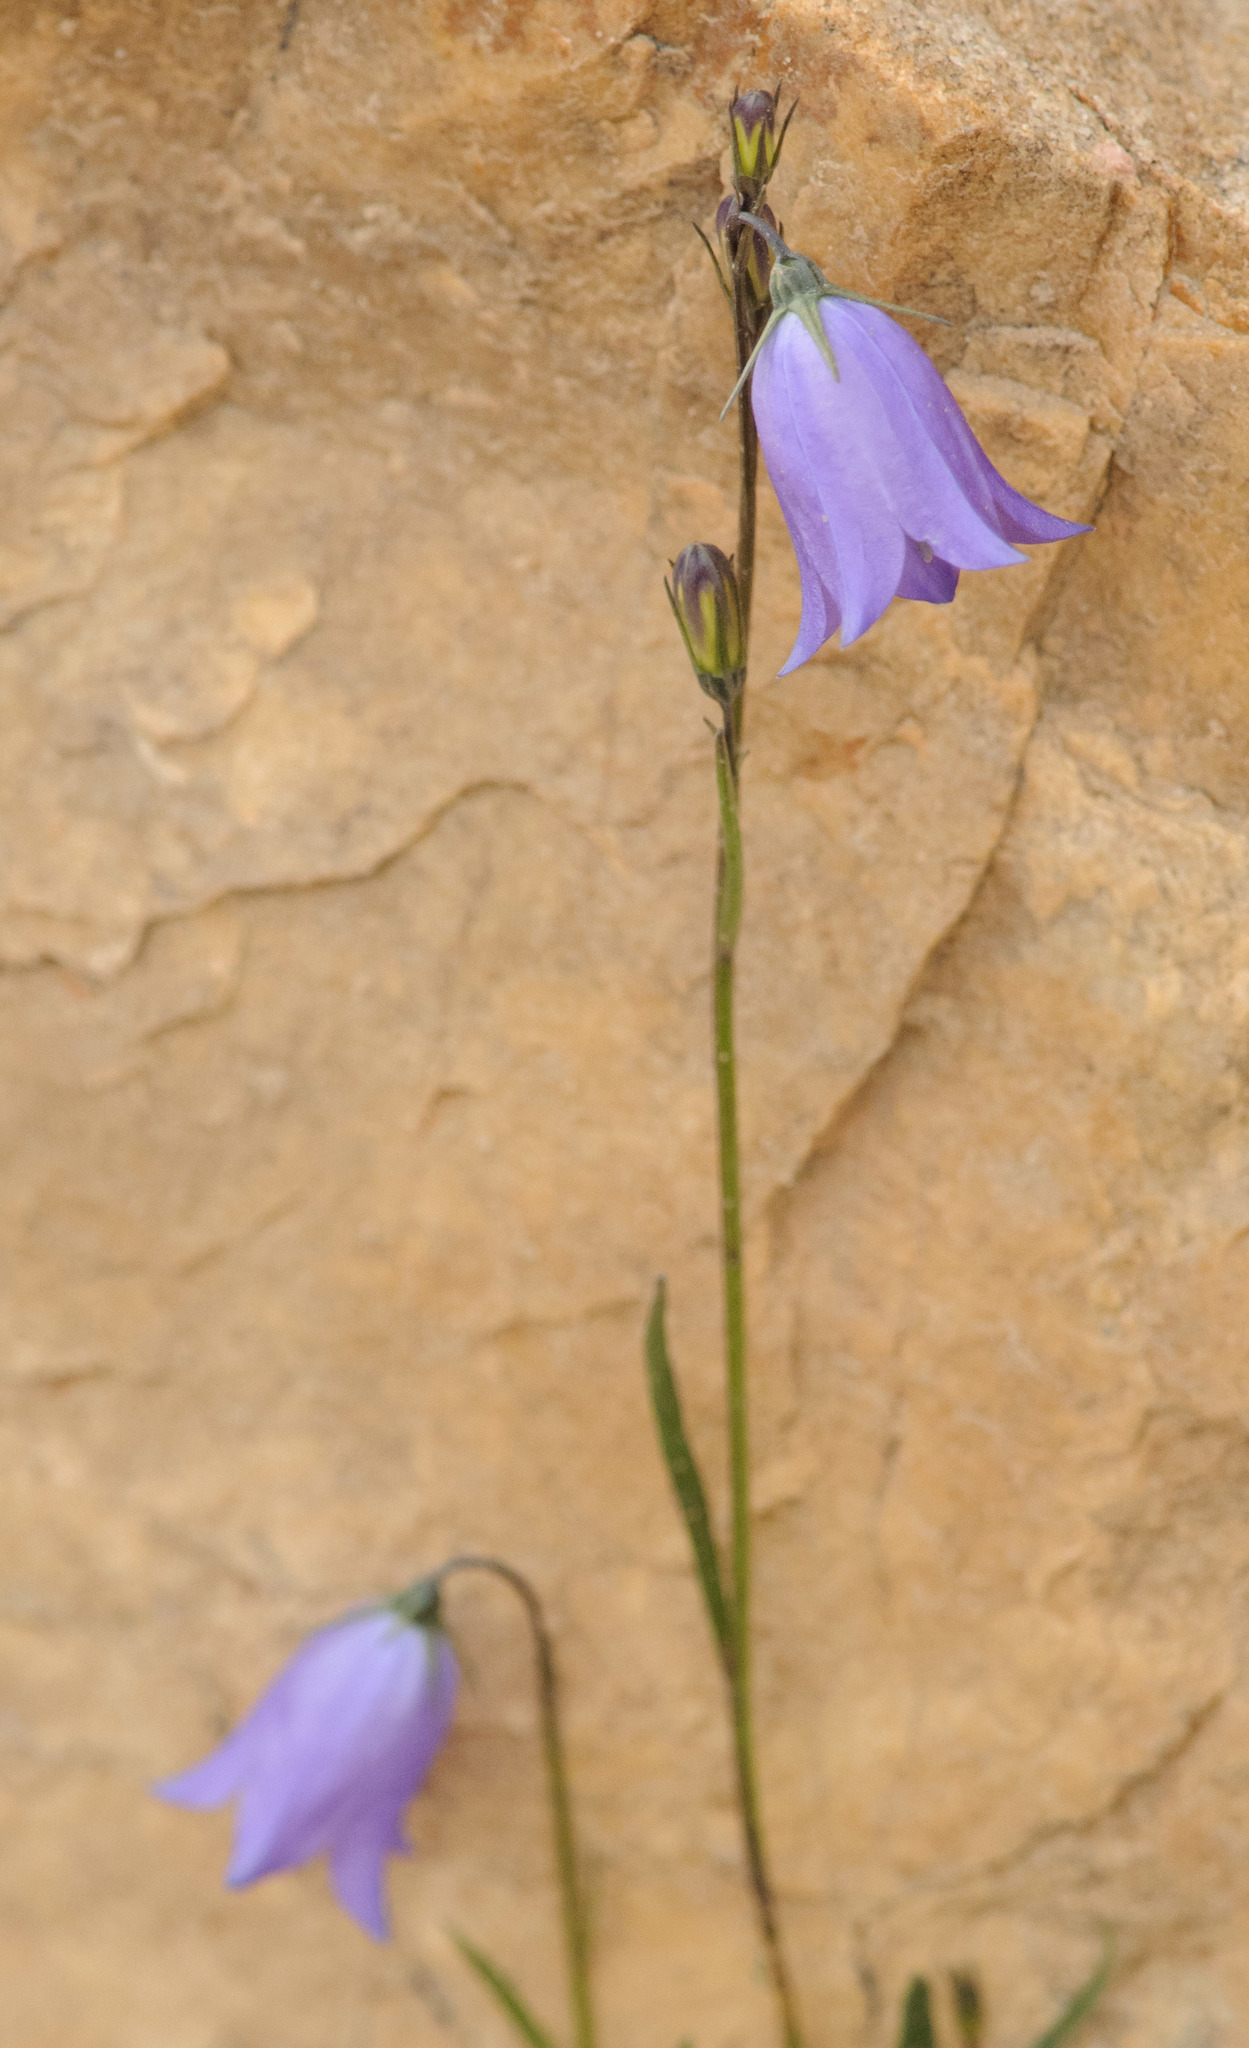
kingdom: Plantae
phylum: Tracheophyta
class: Magnoliopsida
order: Asterales
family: Campanulaceae
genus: Campanula
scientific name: Campanula petiolata
